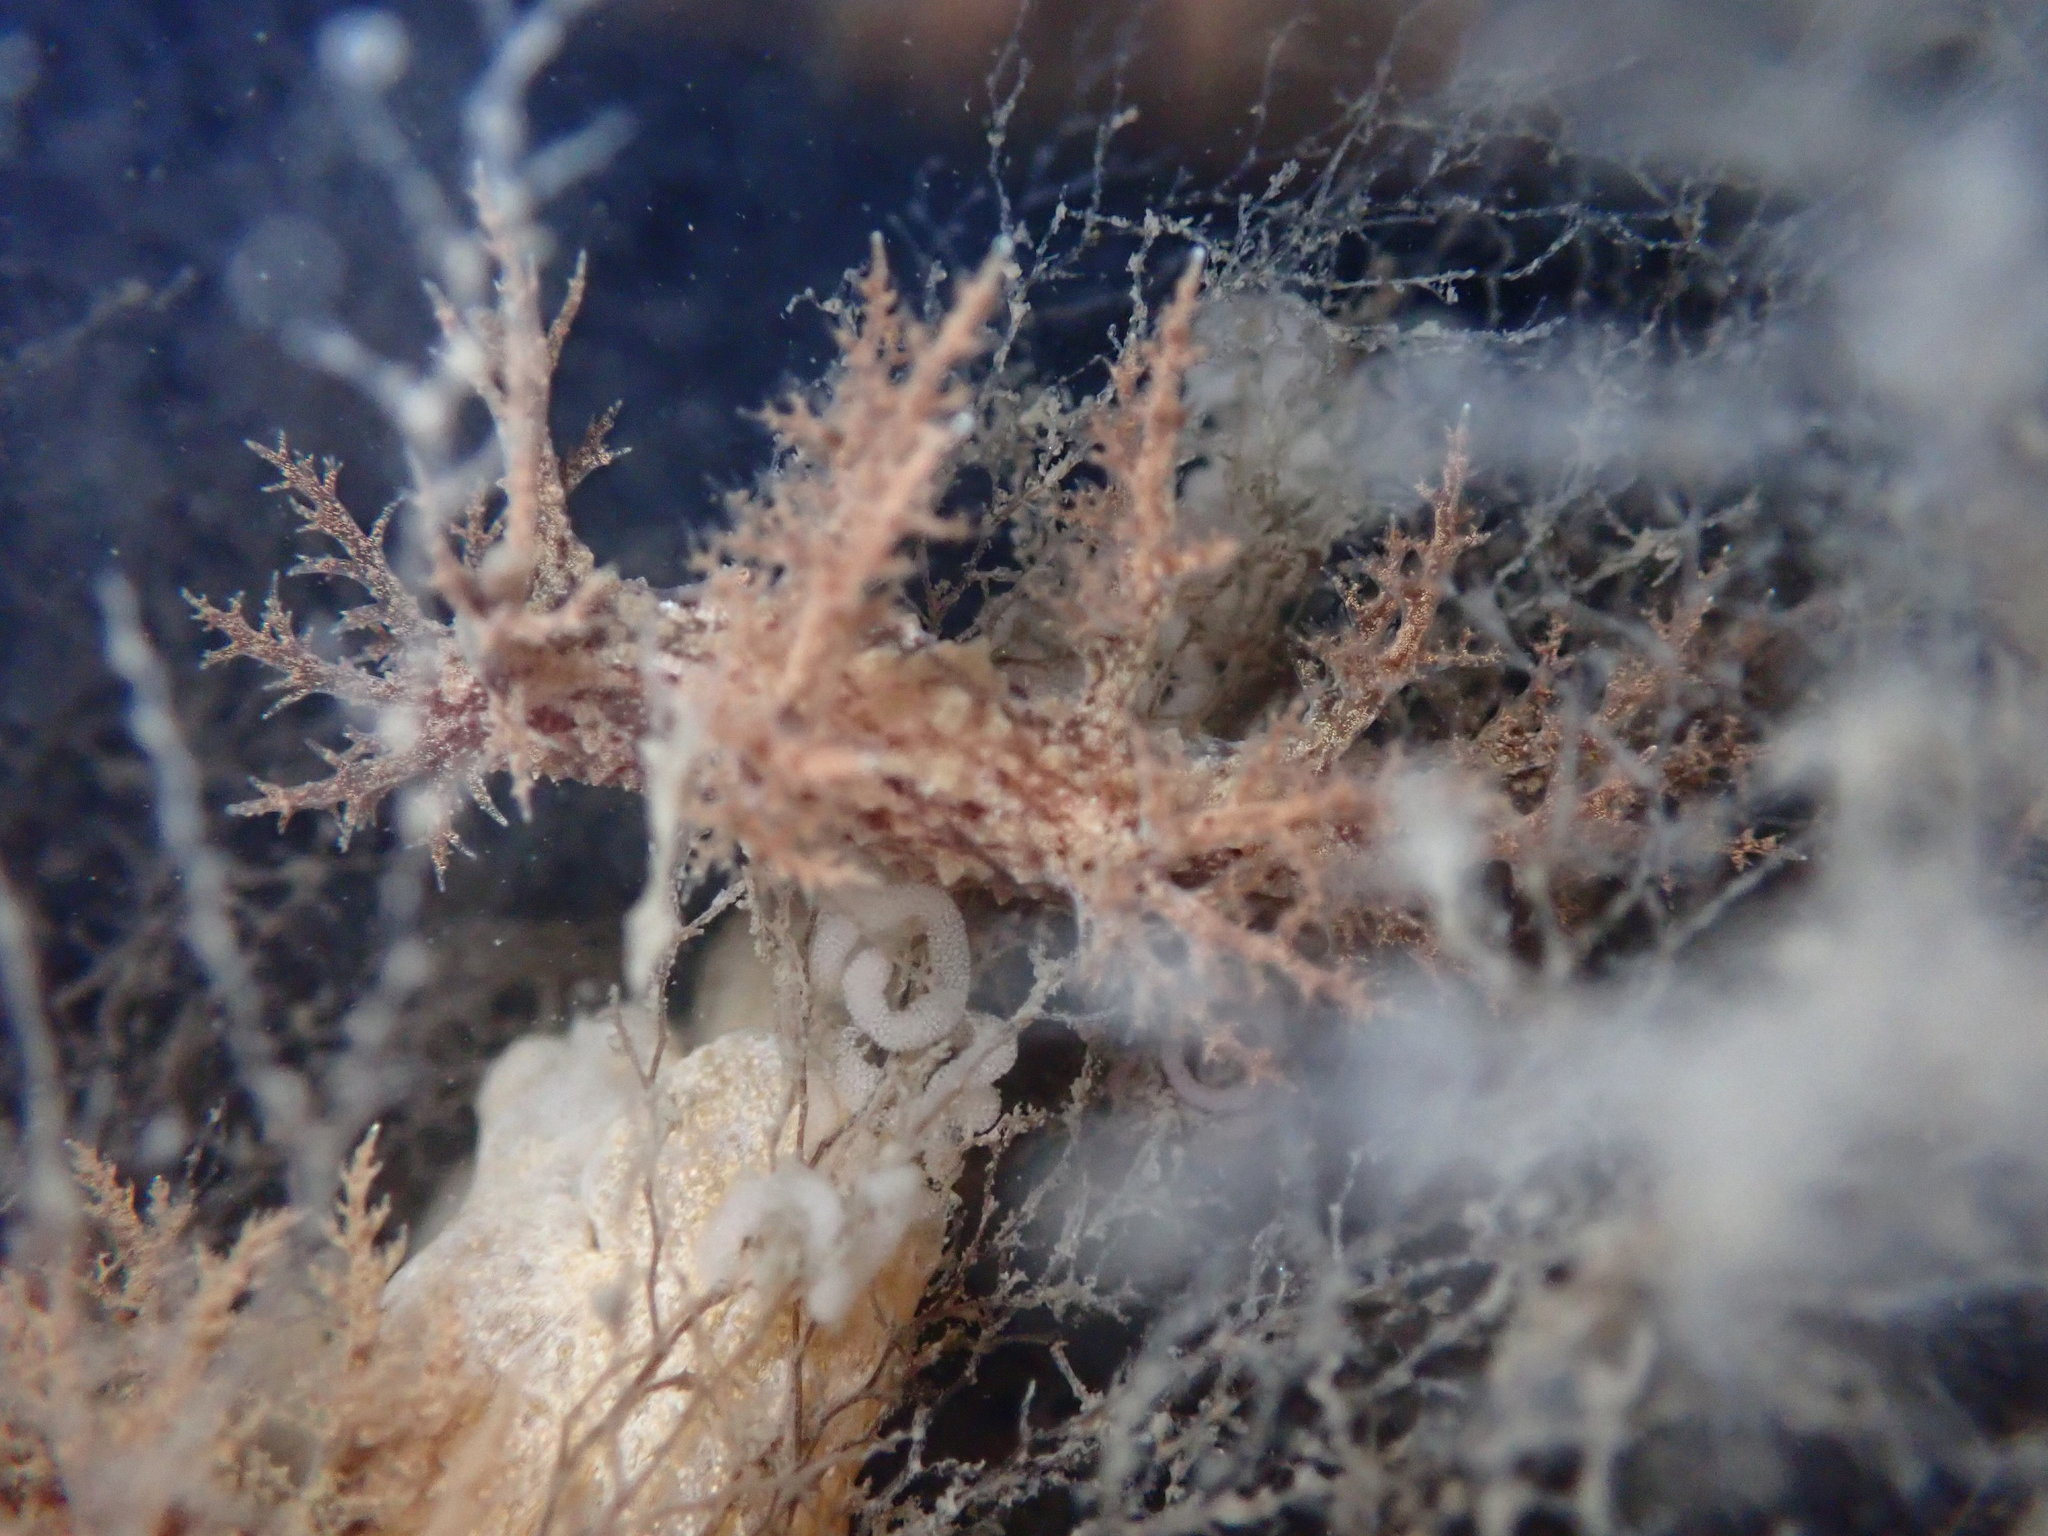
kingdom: Animalia
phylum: Mollusca
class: Gastropoda
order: Nudibranchia
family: Dendronotidae
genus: Dendronotus
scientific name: Dendronotus venustus
